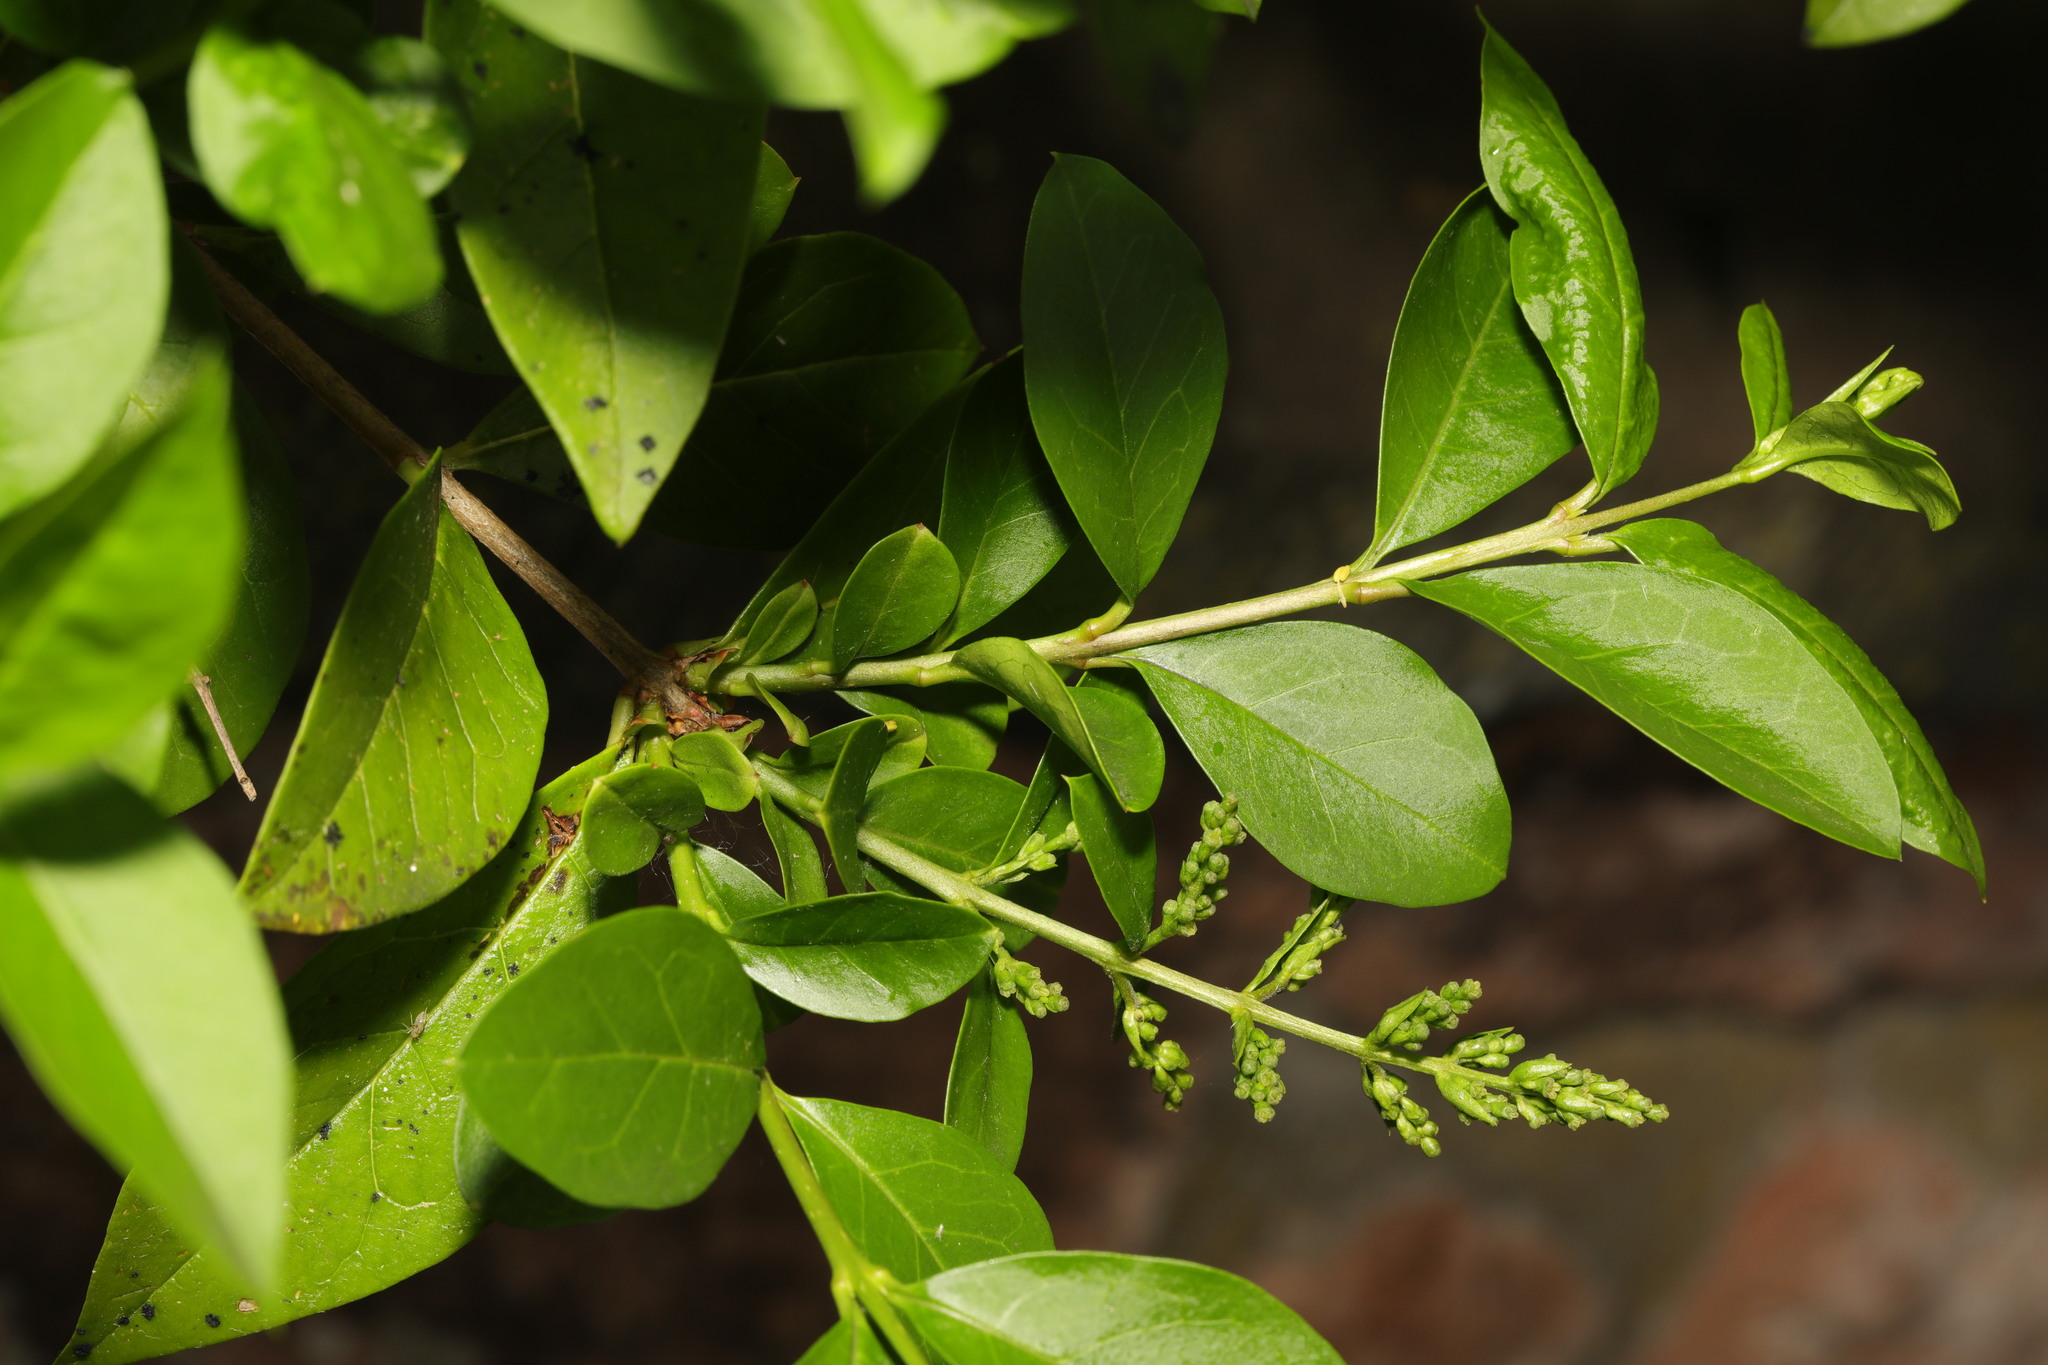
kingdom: Plantae
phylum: Tracheophyta
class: Magnoliopsida
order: Lamiales
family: Oleaceae
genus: Ligustrum
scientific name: Ligustrum ovalifolium
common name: California privet
